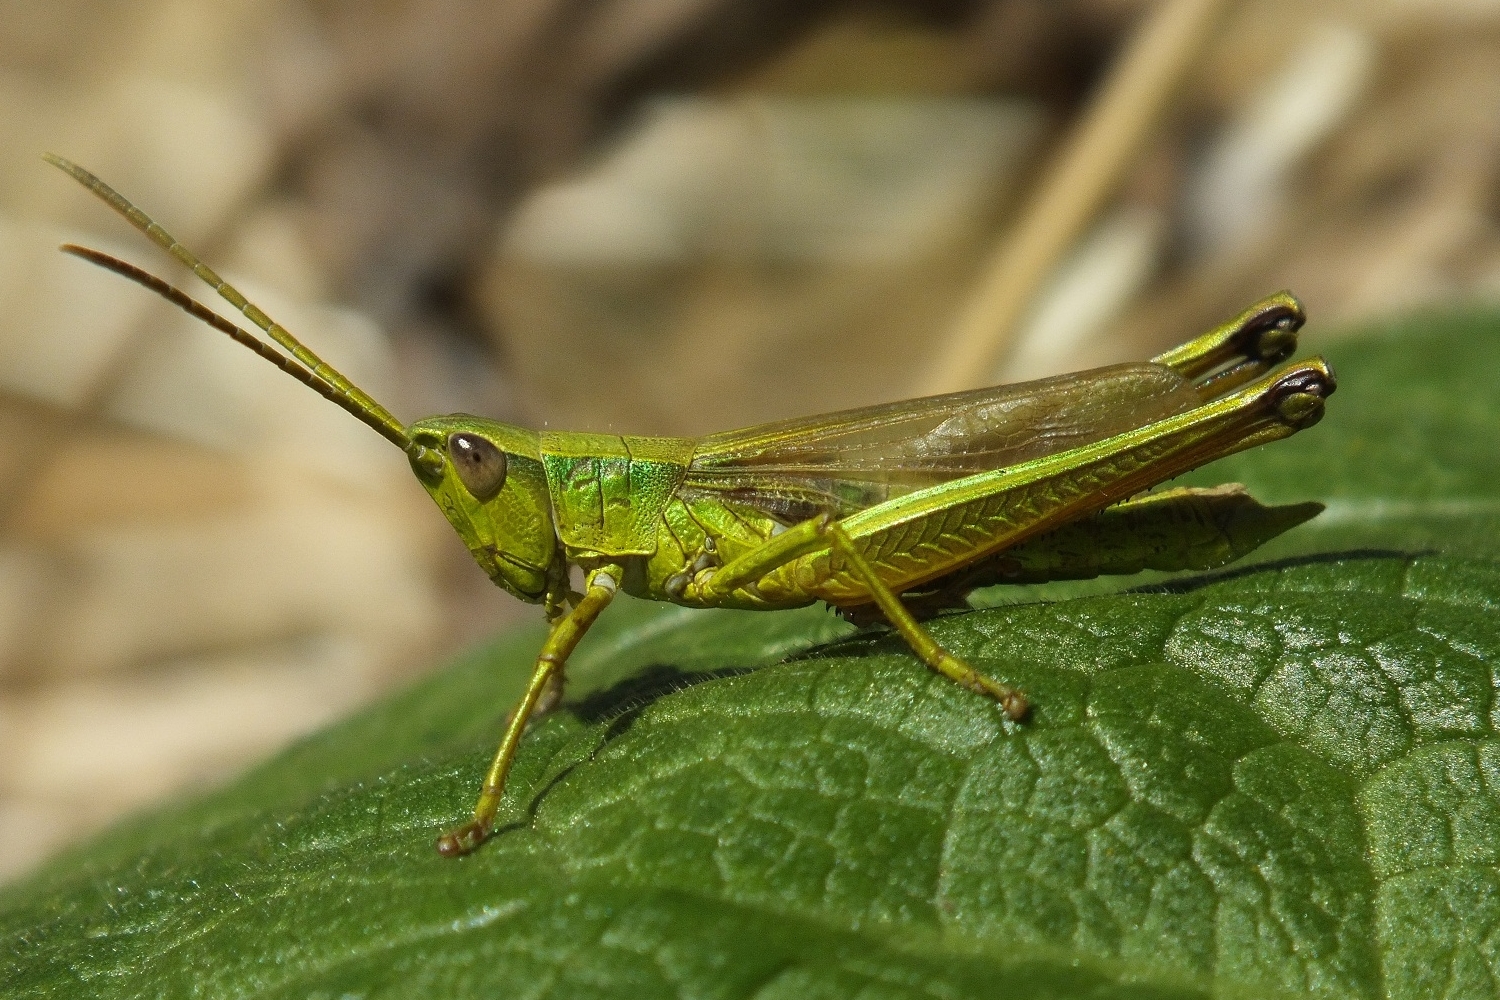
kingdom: Animalia
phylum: Arthropoda
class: Insecta
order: Orthoptera
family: Acrididae
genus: Chrysochraon
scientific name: Chrysochraon dispar
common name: Large gold grasshopper
